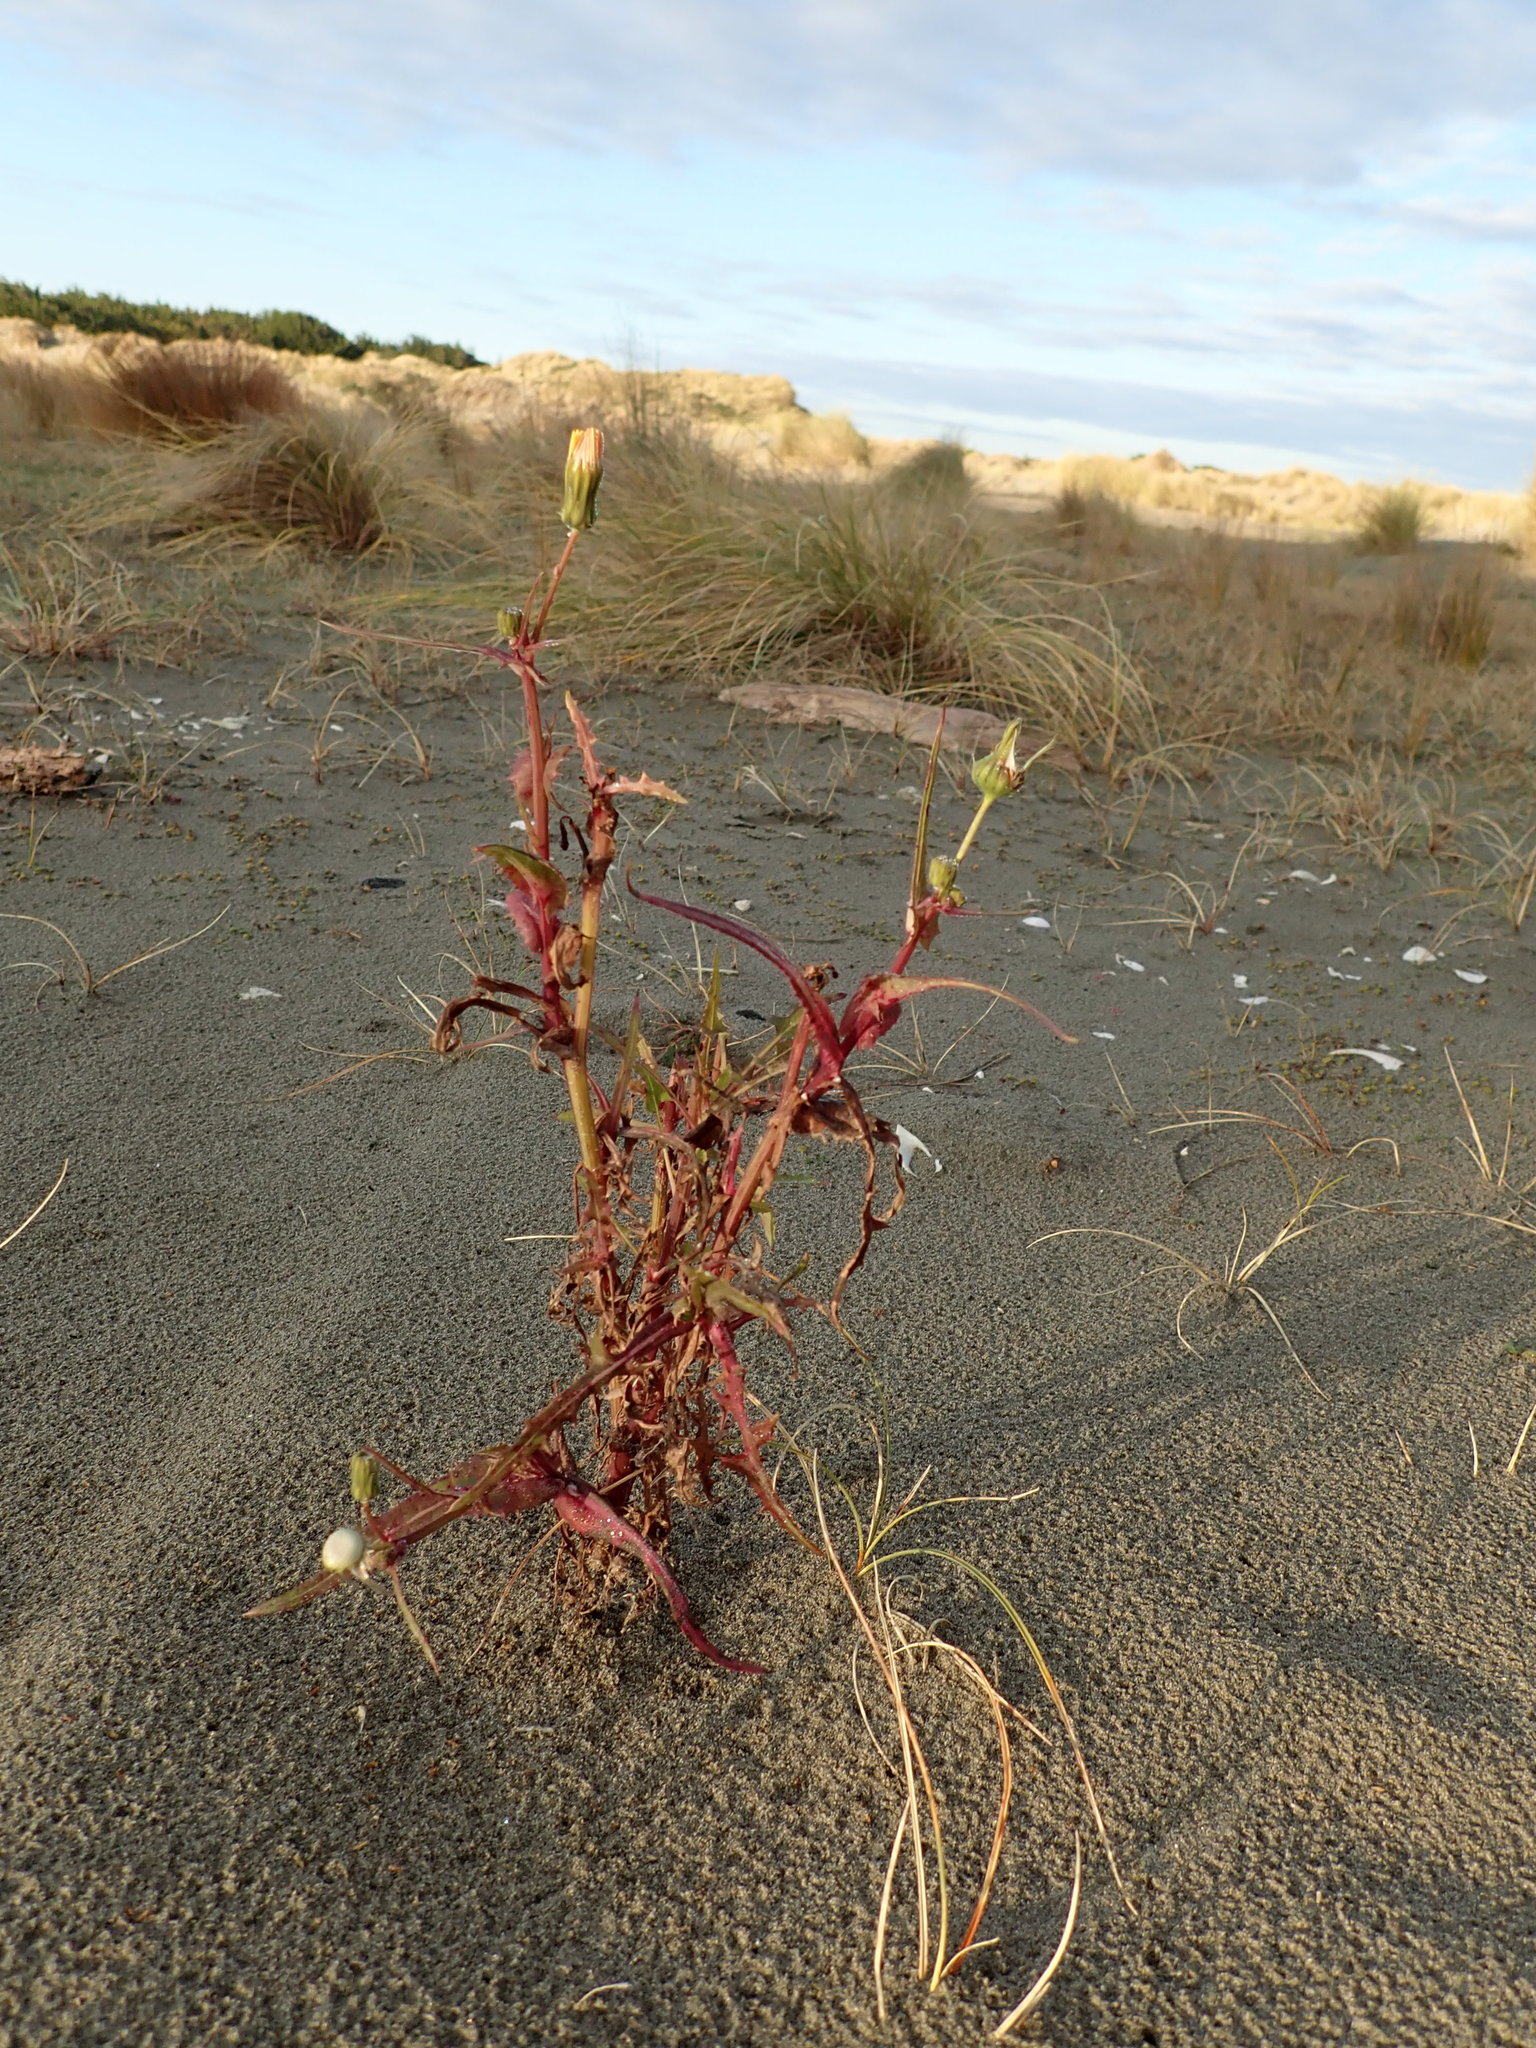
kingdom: Plantae
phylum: Tracheophyta
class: Magnoliopsida
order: Asterales
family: Asteraceae
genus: Sonchus
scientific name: Sonchus oleraceus
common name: Common sowthistle
